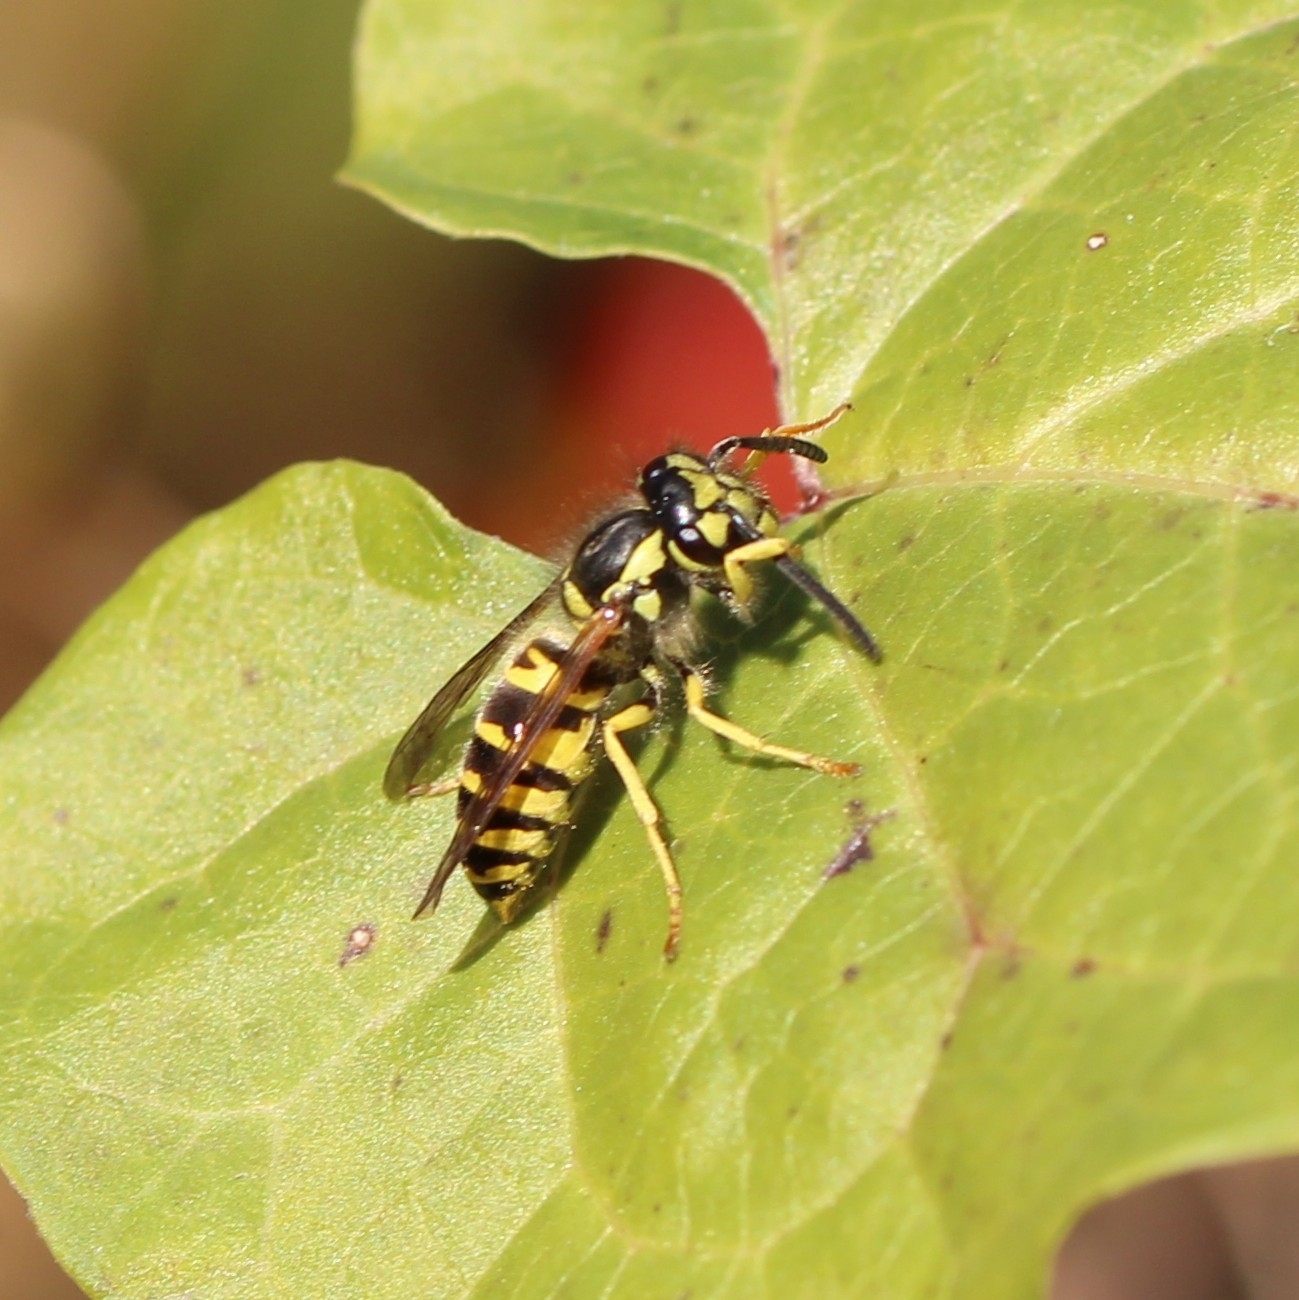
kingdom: Animalia
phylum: Arthropoda
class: Insecta
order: Hymenoptera
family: Vespidae
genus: Vespula
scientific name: Vespula maculifrons
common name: Eastern yellowjacket
